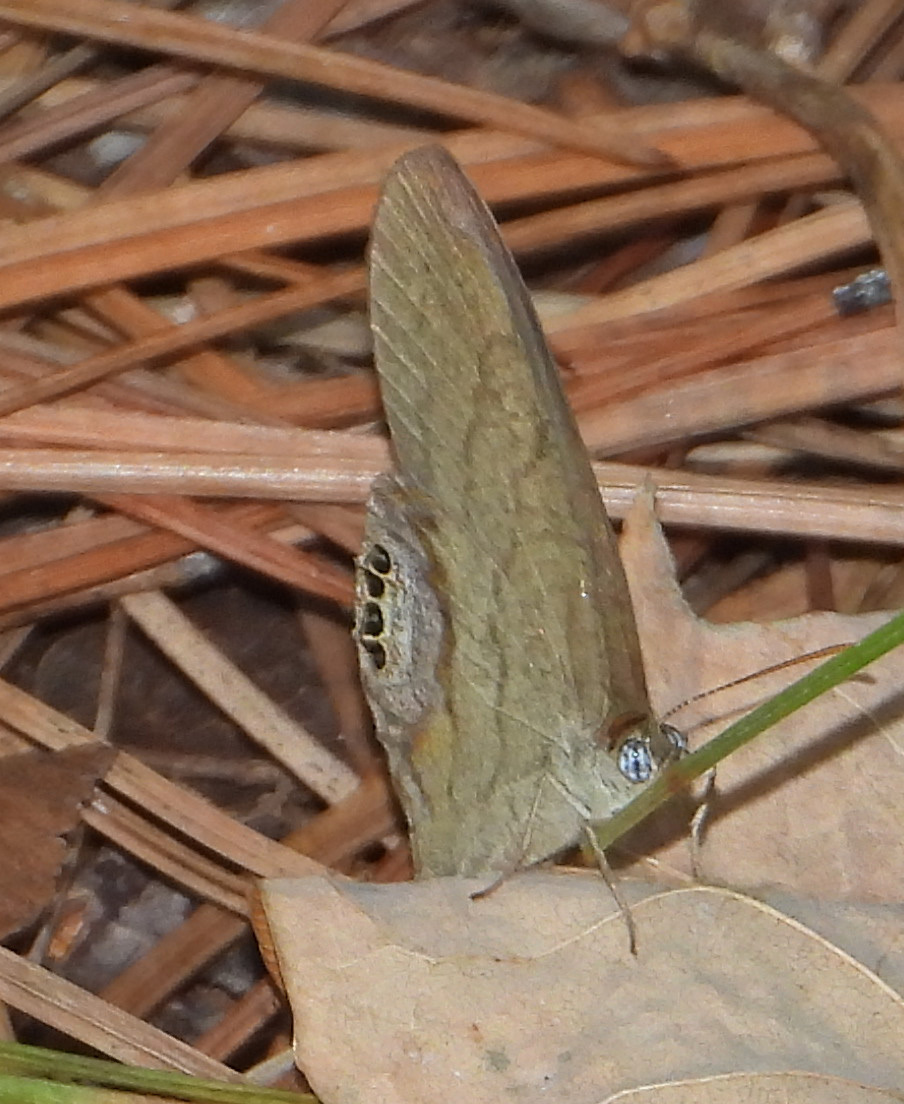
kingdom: Animalia
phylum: Arthropoda
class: Insecta
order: Lepidoptera
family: Nymphalidae
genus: Euptychia
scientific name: Euptychia cornelius
